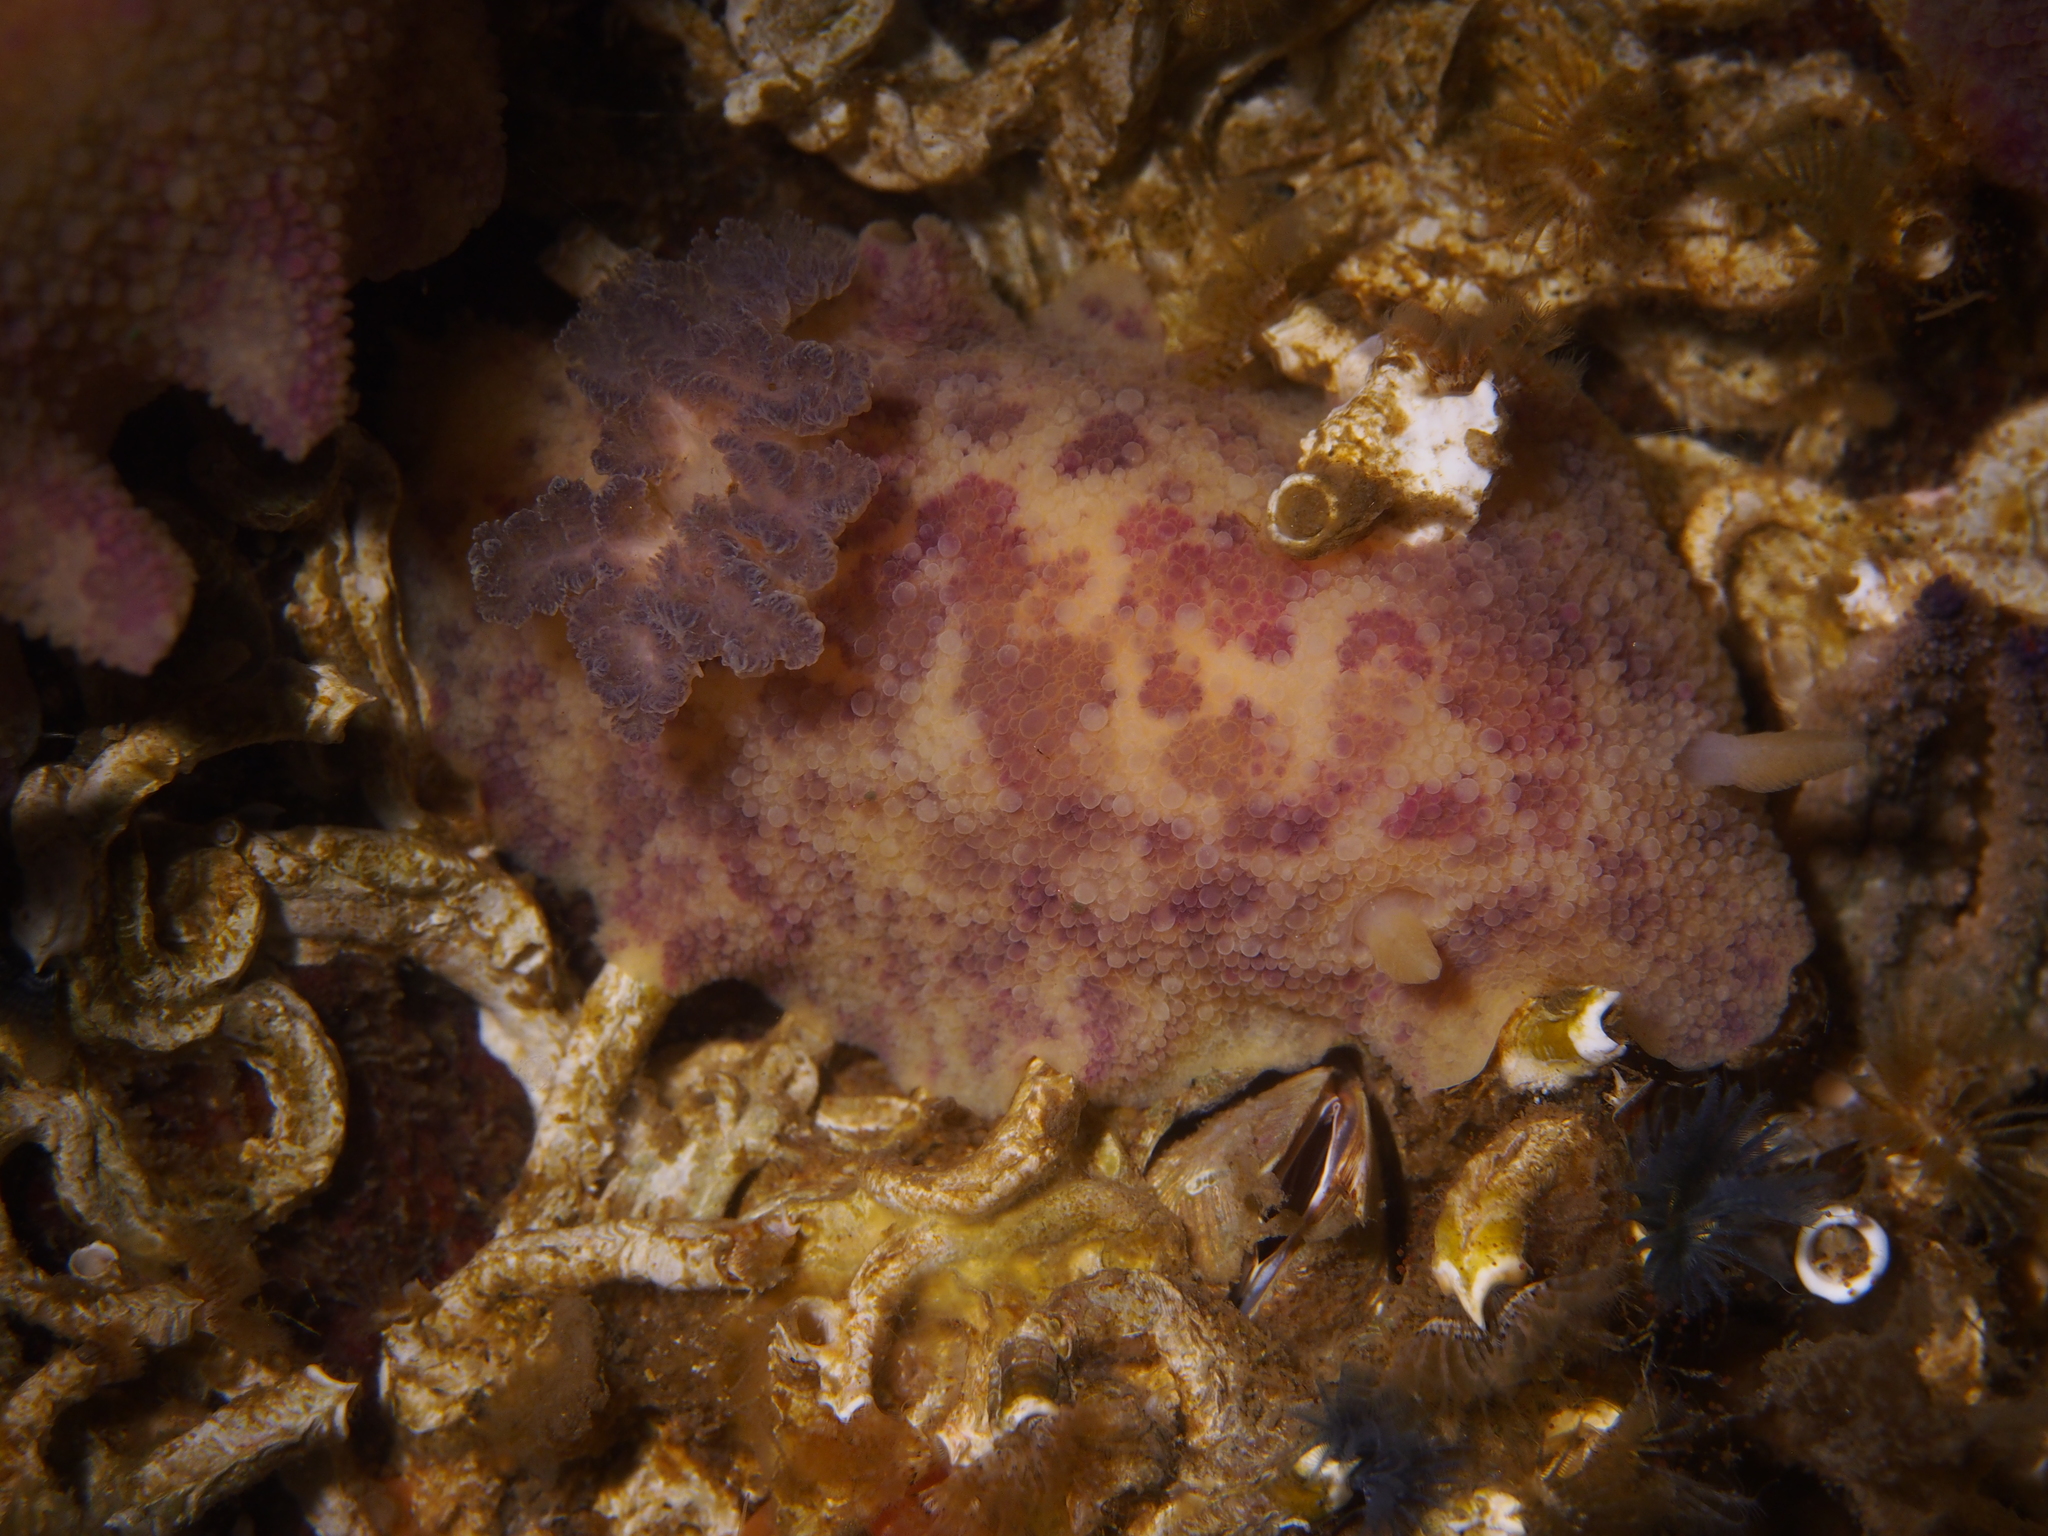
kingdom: Animalia
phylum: Mollusca
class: Gastropoda
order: Nudibranchia
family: Dorididae
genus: Doris
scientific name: Doris pseudoargus
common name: Sea lemon
